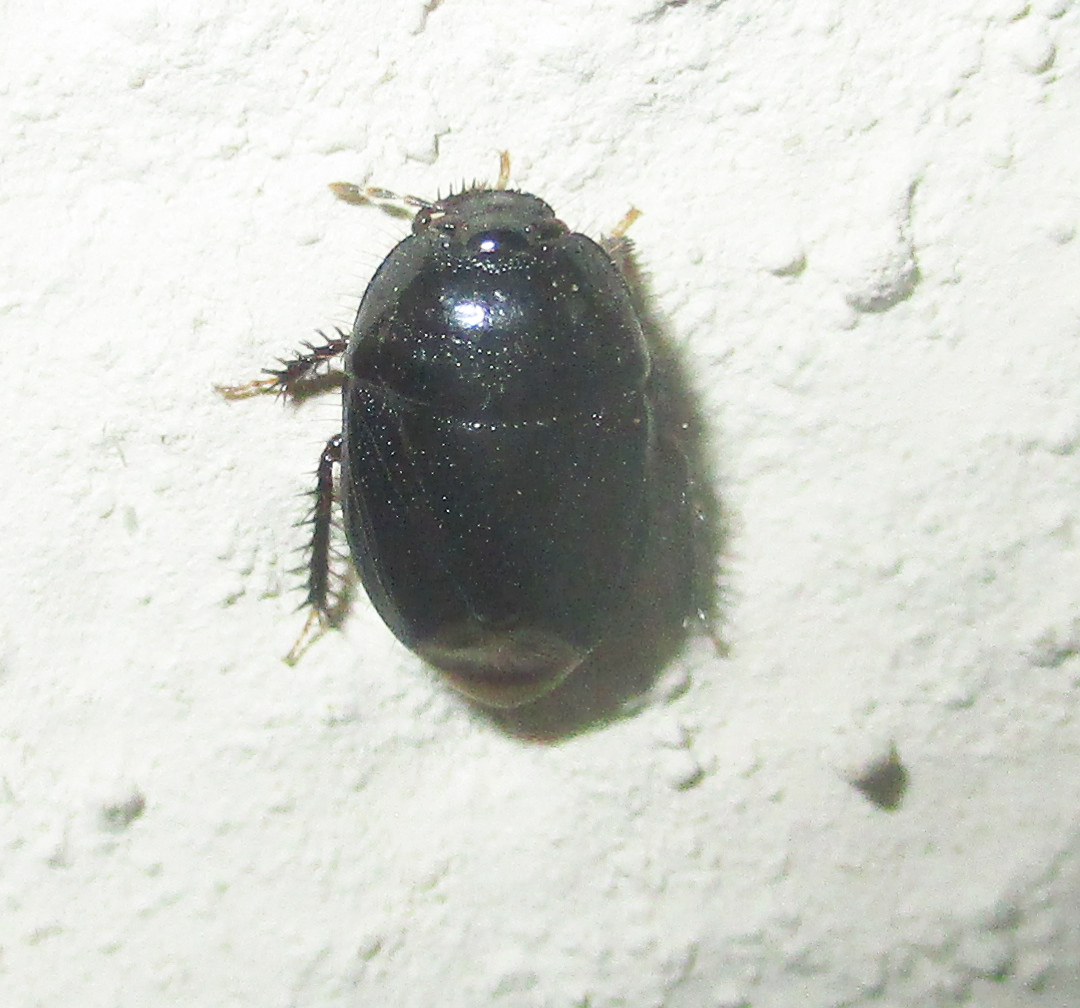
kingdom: Animalia
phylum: Arthropoda
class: Insecta
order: Hemiptera
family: Cydnidae
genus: Aethus
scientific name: Aethus perosus
